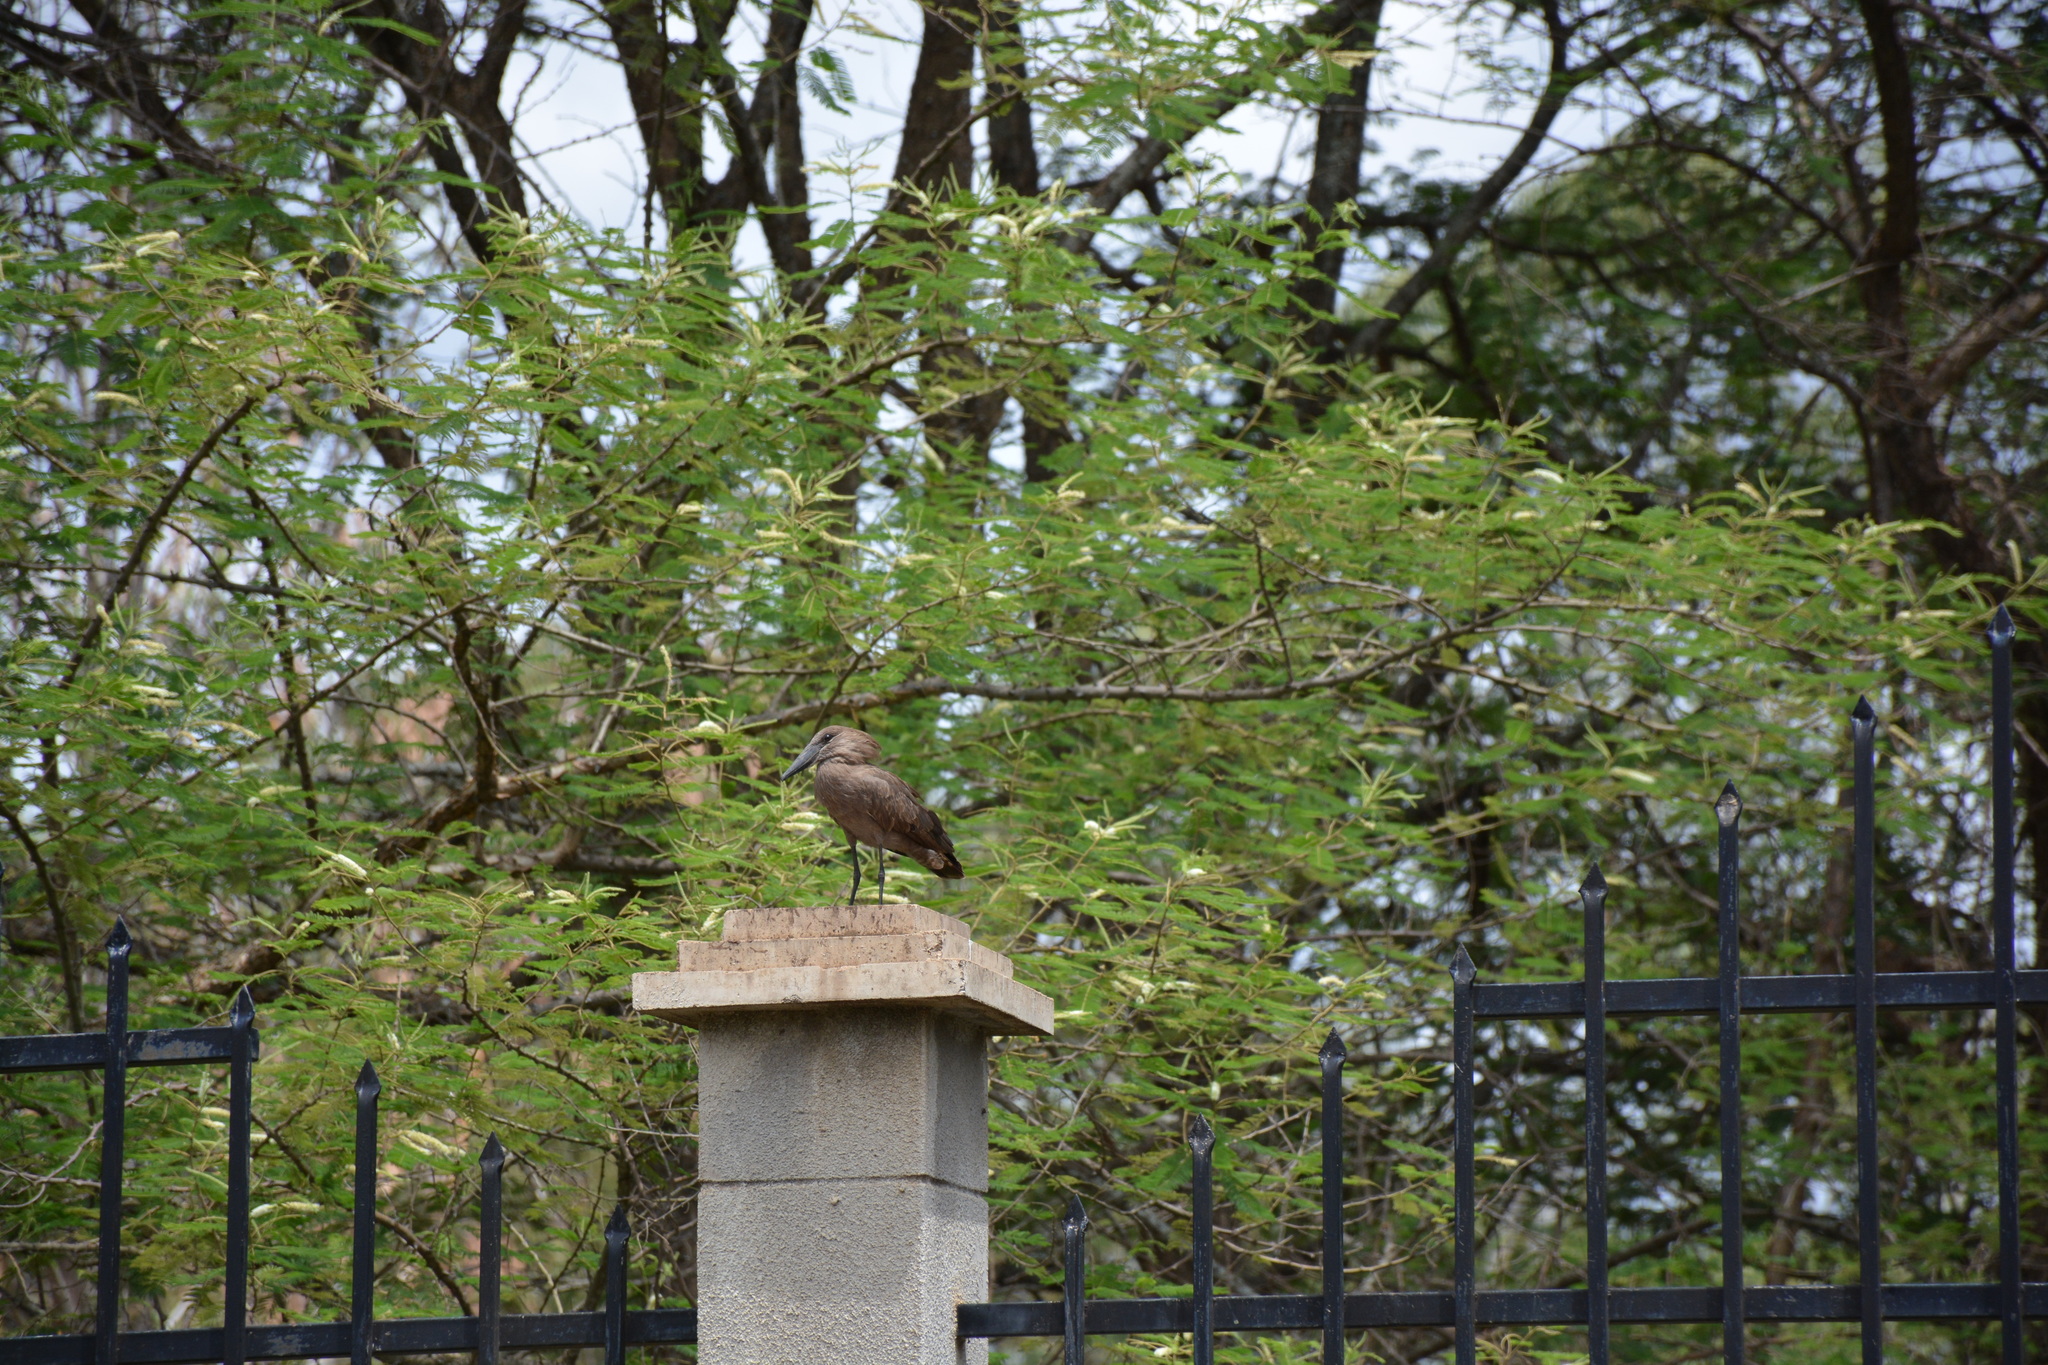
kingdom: Animalia
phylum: Chordata
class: Aves
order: Pelecaniformes
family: Scopidae
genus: Scopus
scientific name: Scopus umbretta
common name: Hamerkop
